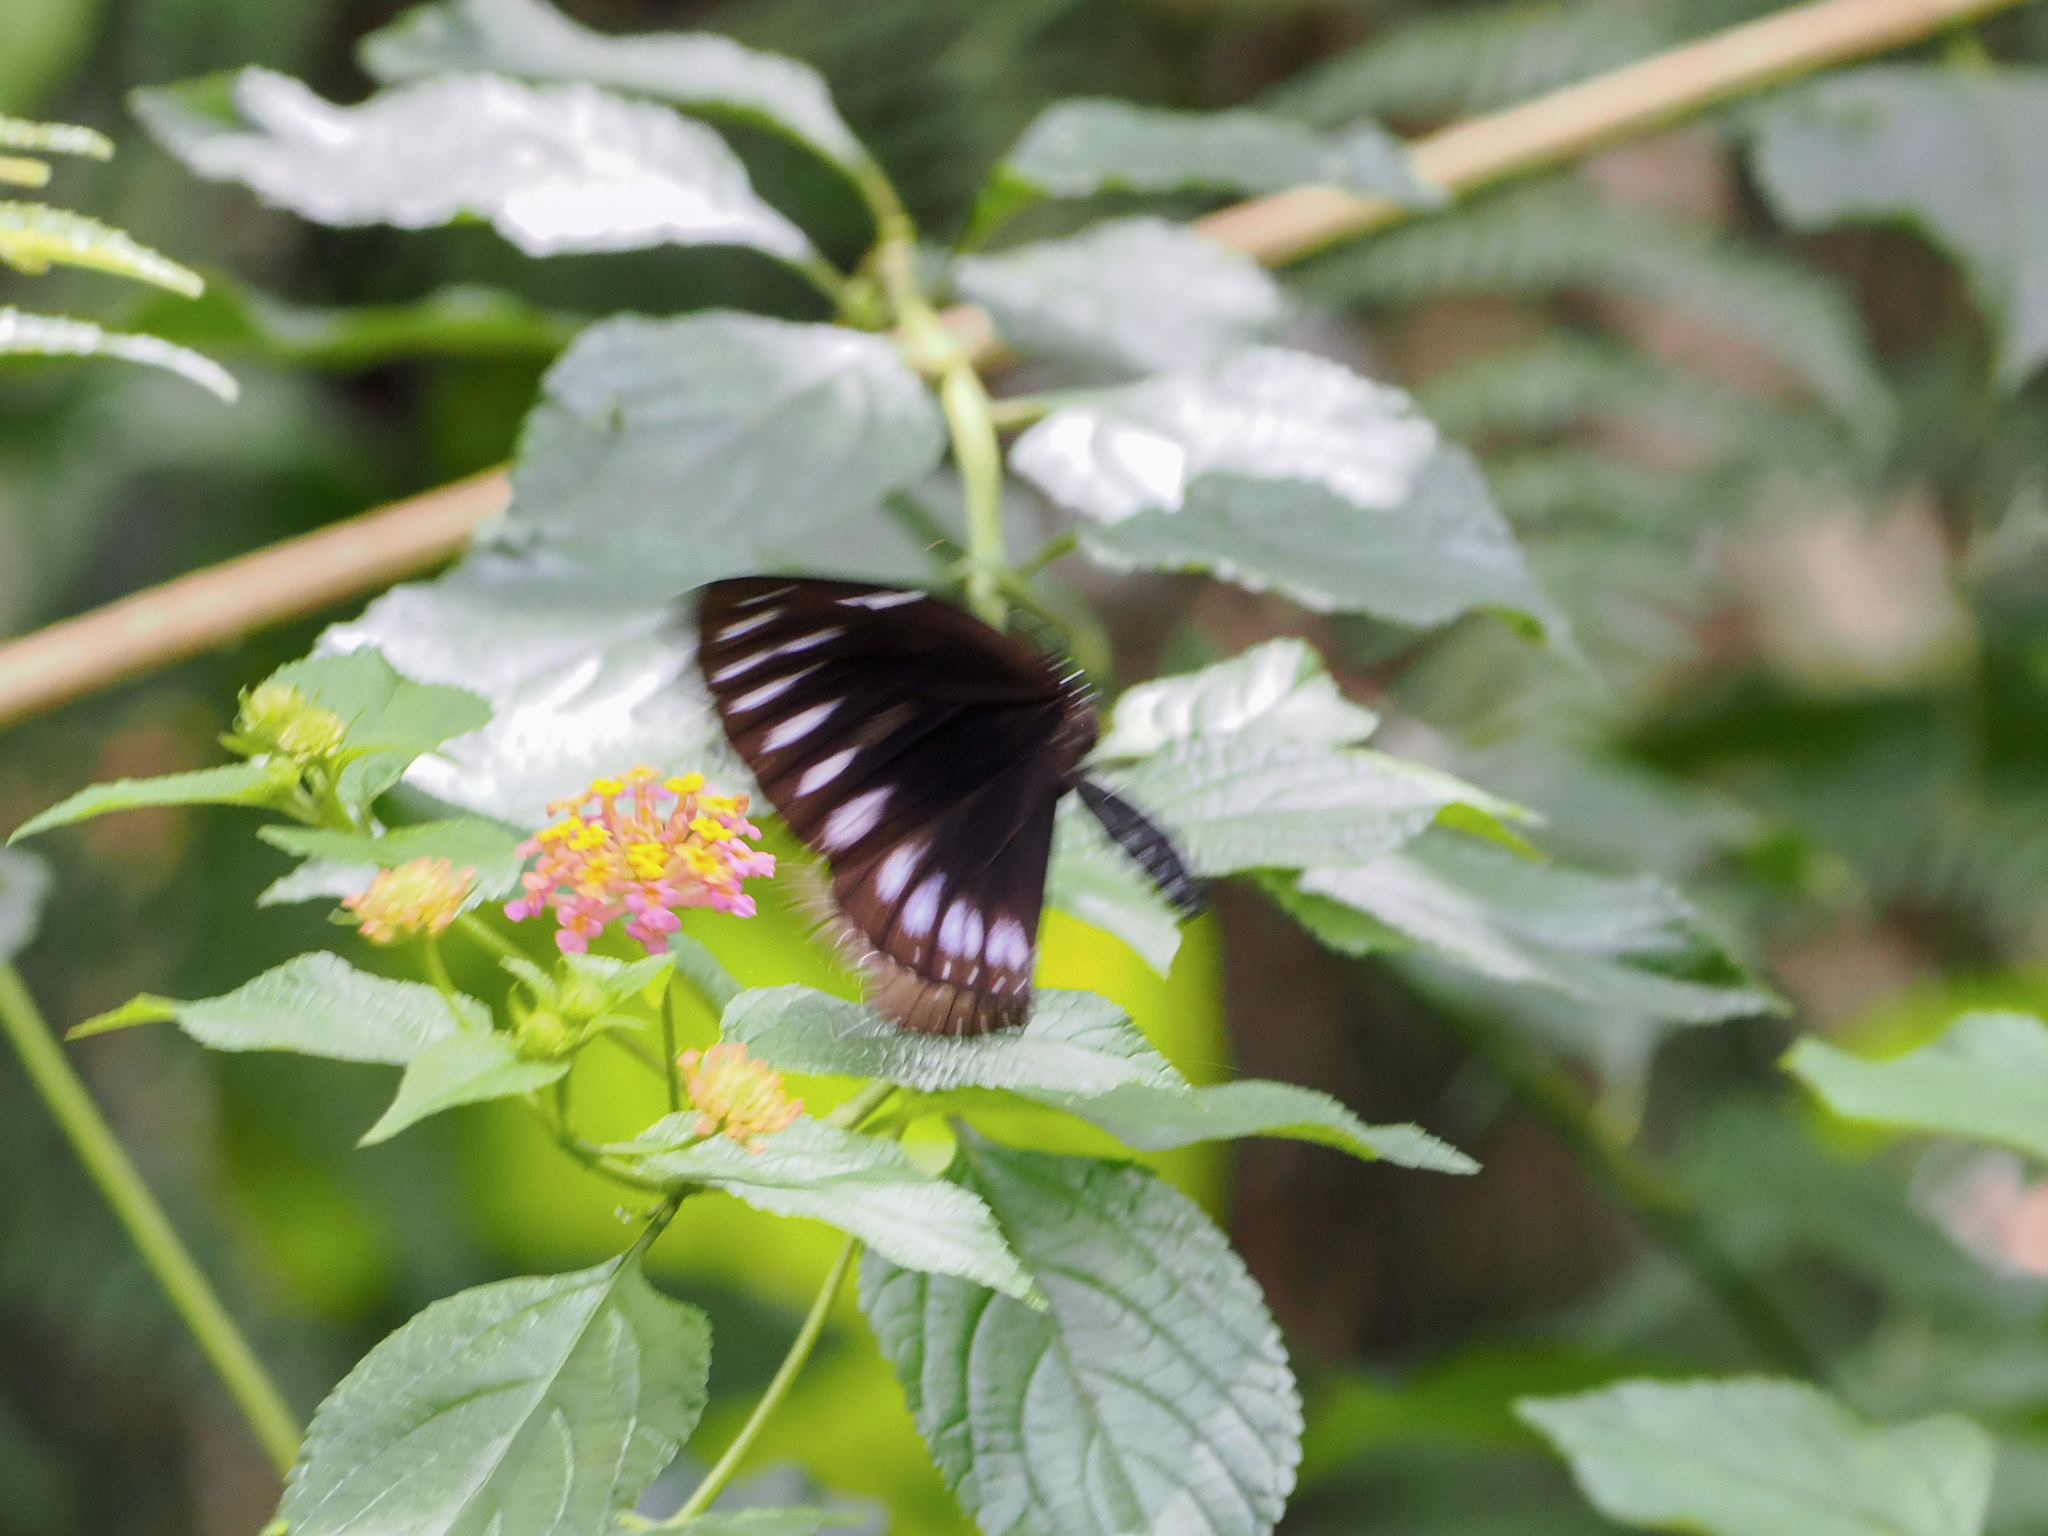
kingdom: Animalia
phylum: Arthropoda
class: Insecta
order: Lepidoptera
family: Nymphalidae
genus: Euploea
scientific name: Euploea westwoodii
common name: Westwood's king crow
